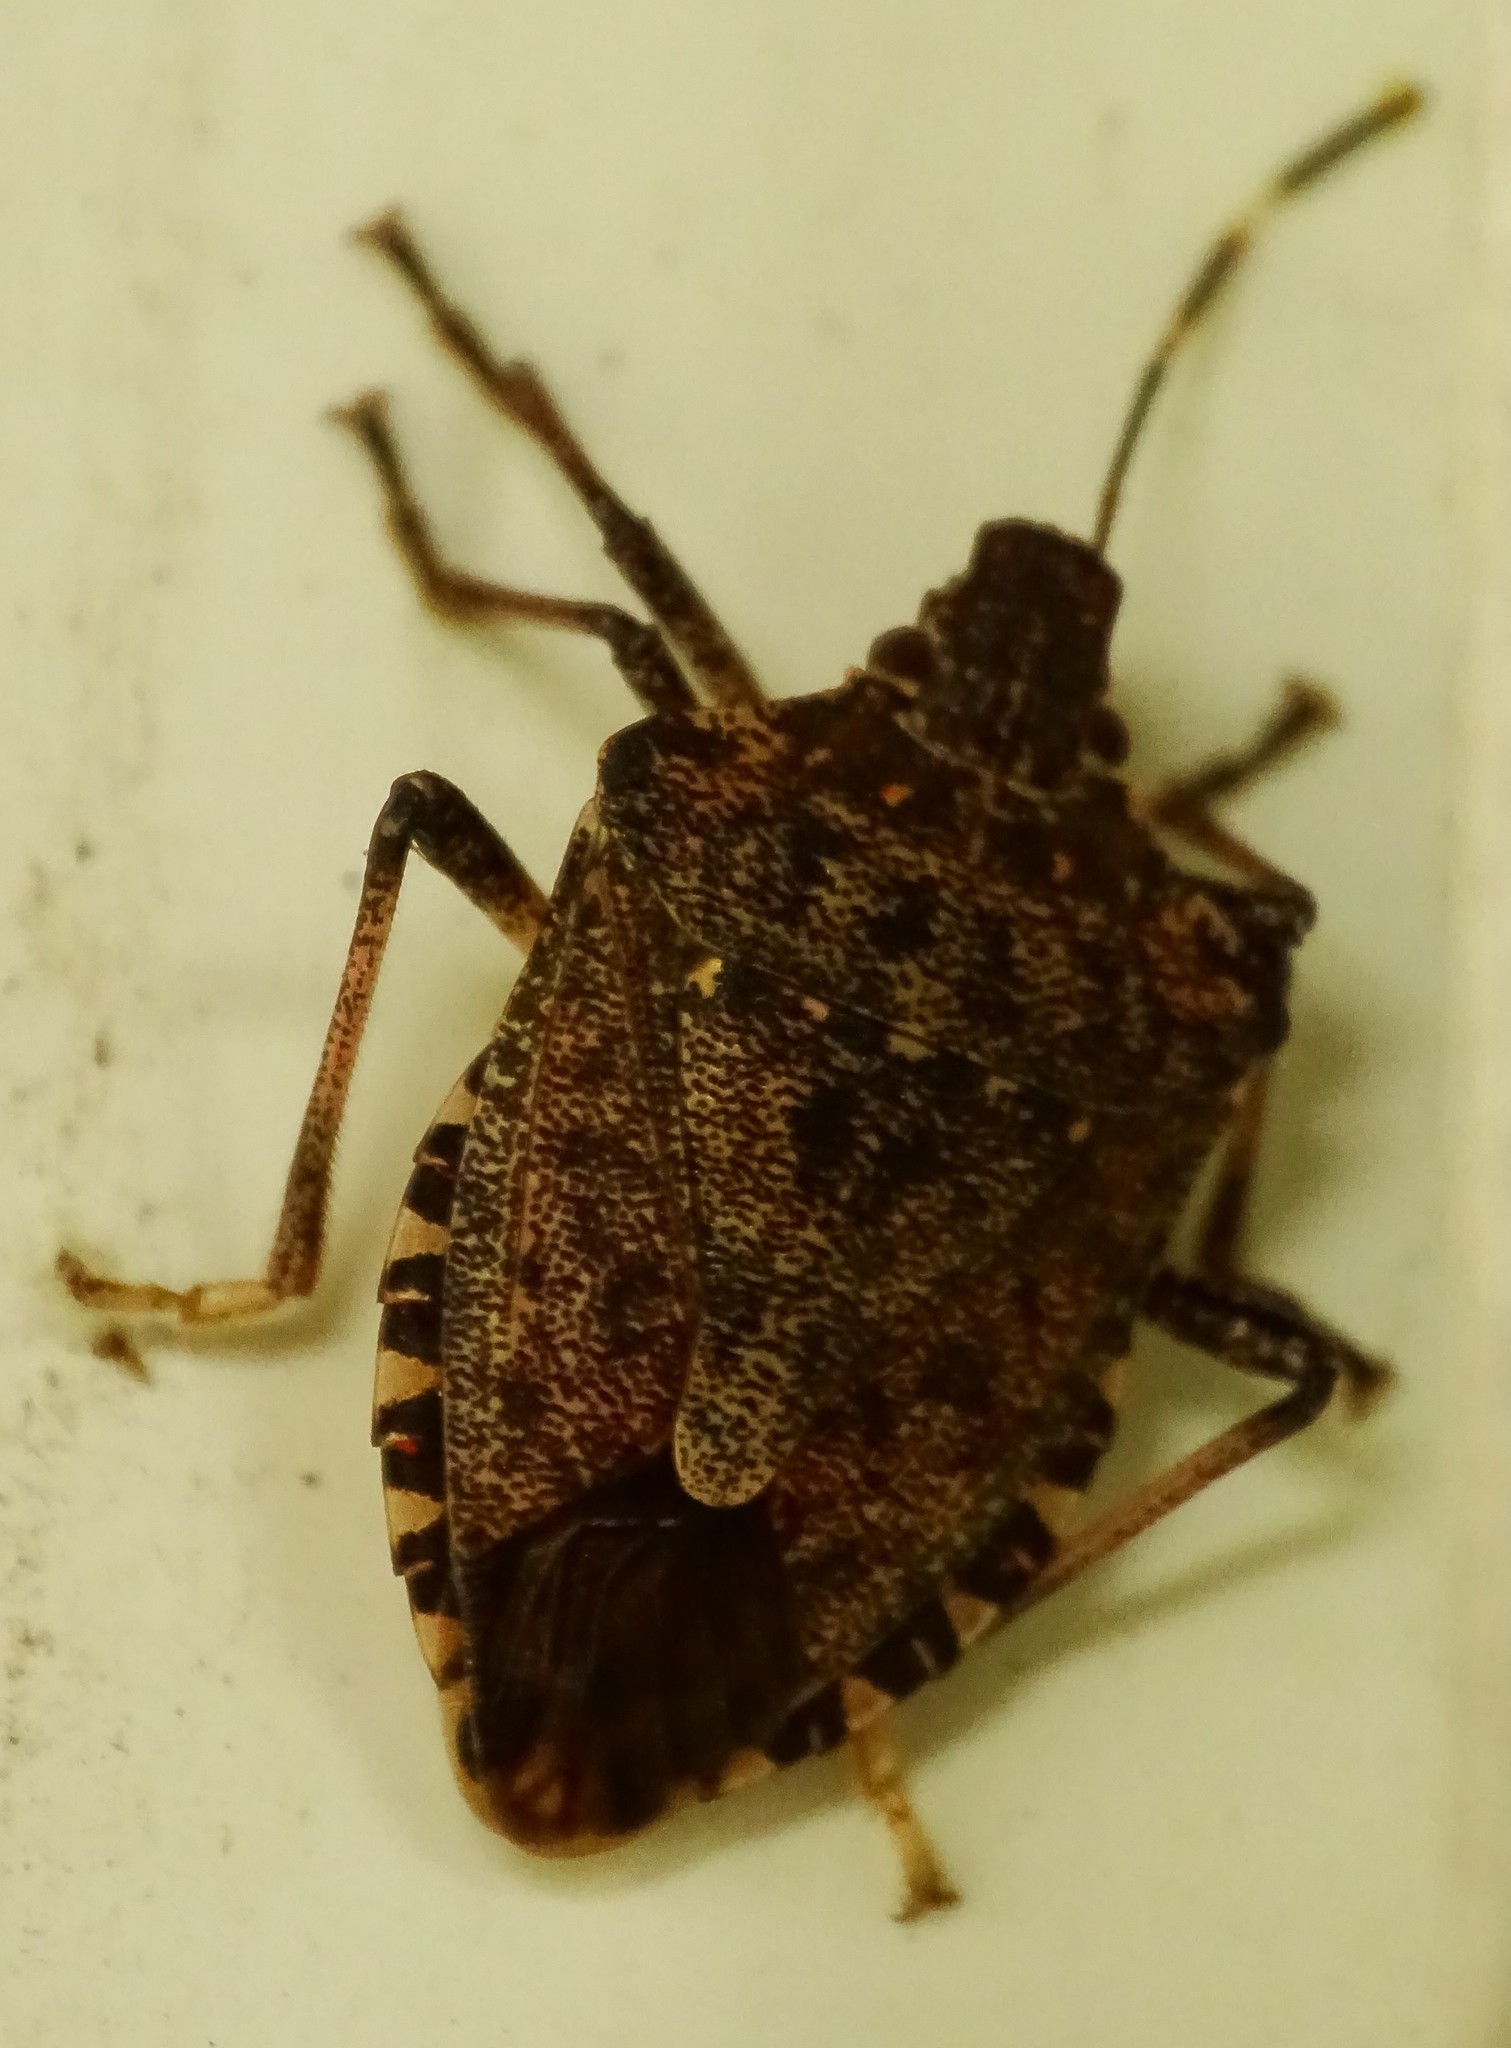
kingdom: Animalia
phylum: Arthropoda
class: Insecta
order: Hemiptera
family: Pentatomidae
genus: Halyomorpha
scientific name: Halyomorpha halys
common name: Brown marmorated stink bug
